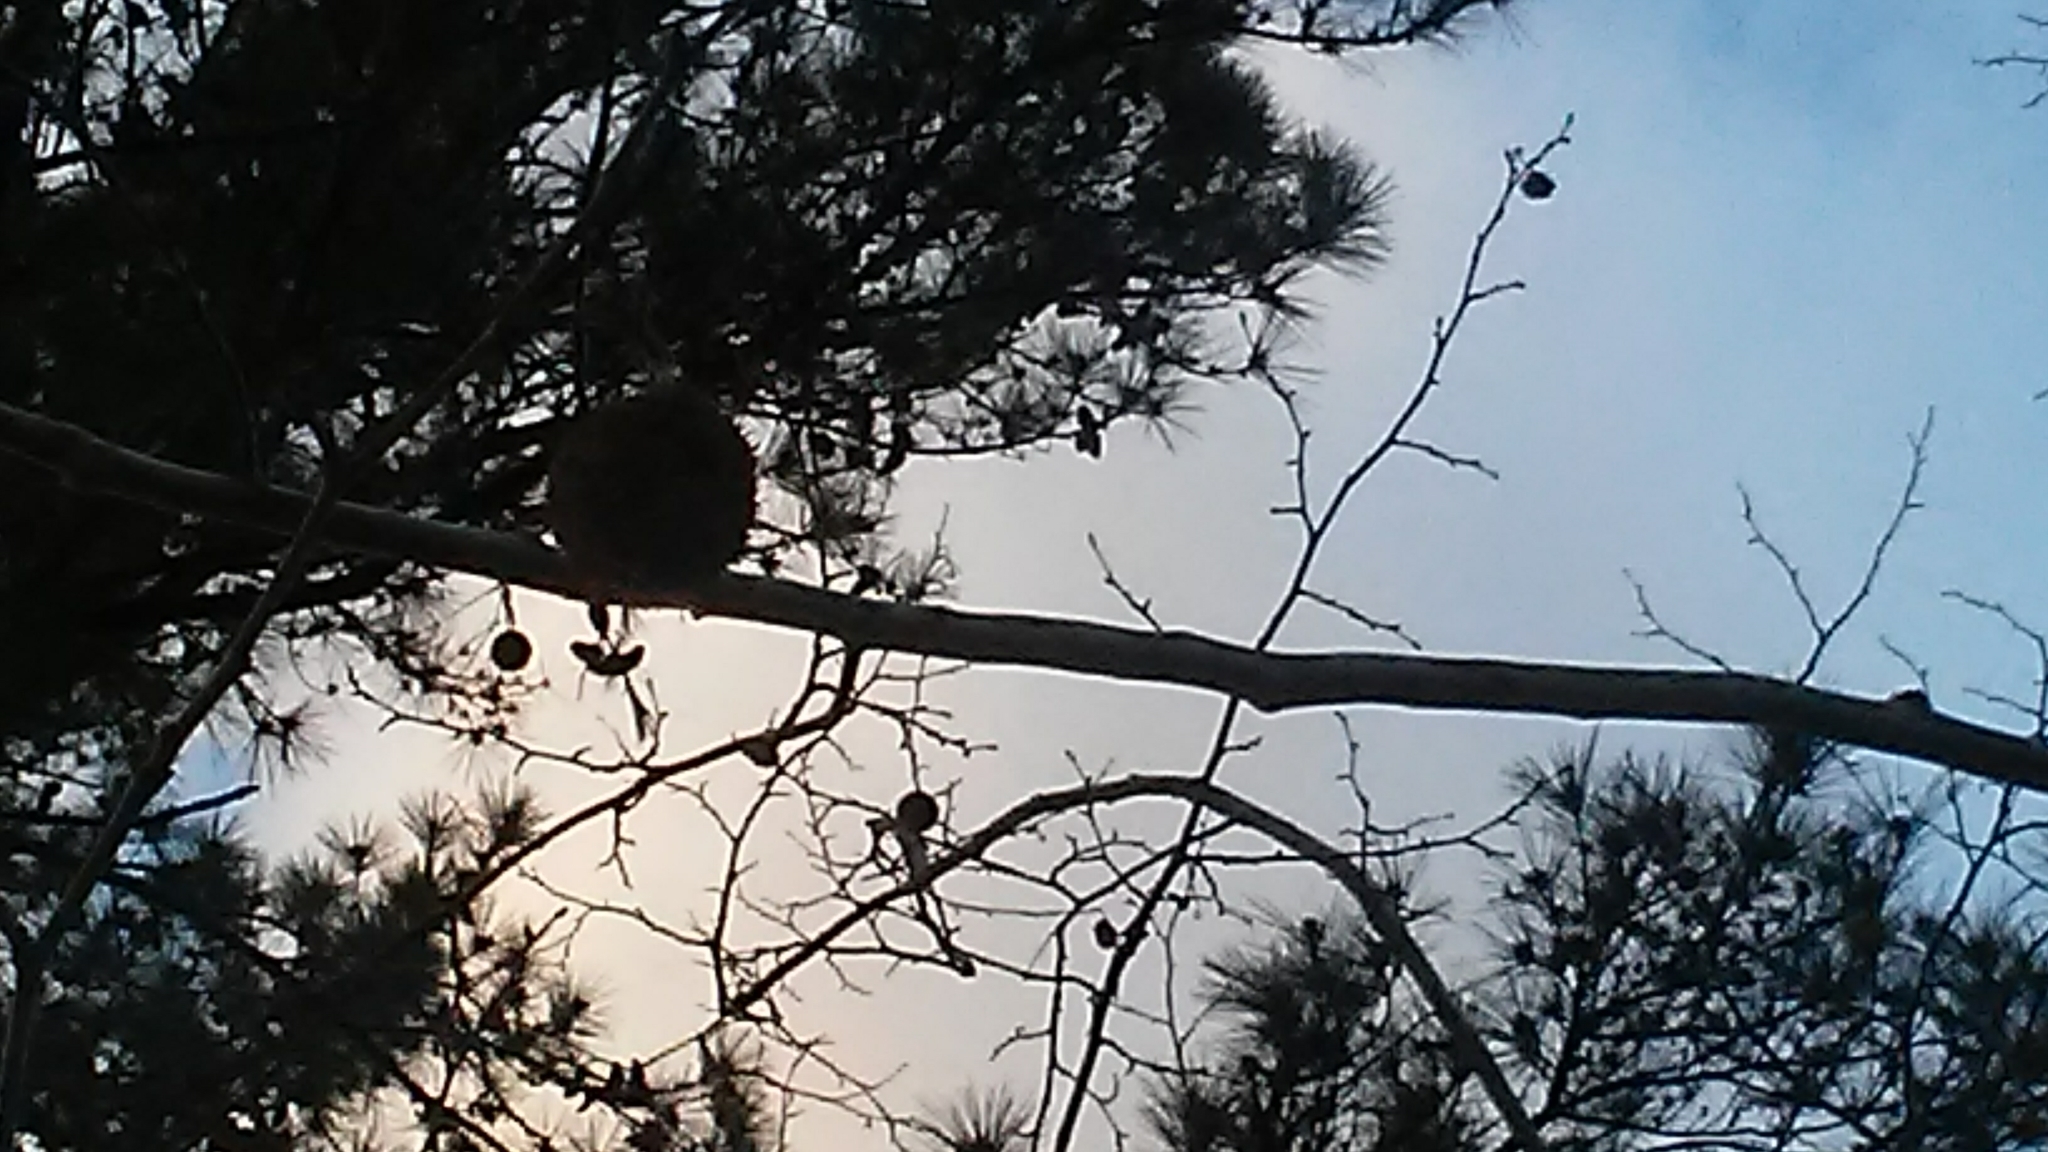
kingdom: Plantae
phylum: Tracheophyta
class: Magnoliopsida
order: Proteales
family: Platanaceae
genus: Platanus
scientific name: Platanus occidentalis
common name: American sycamore
